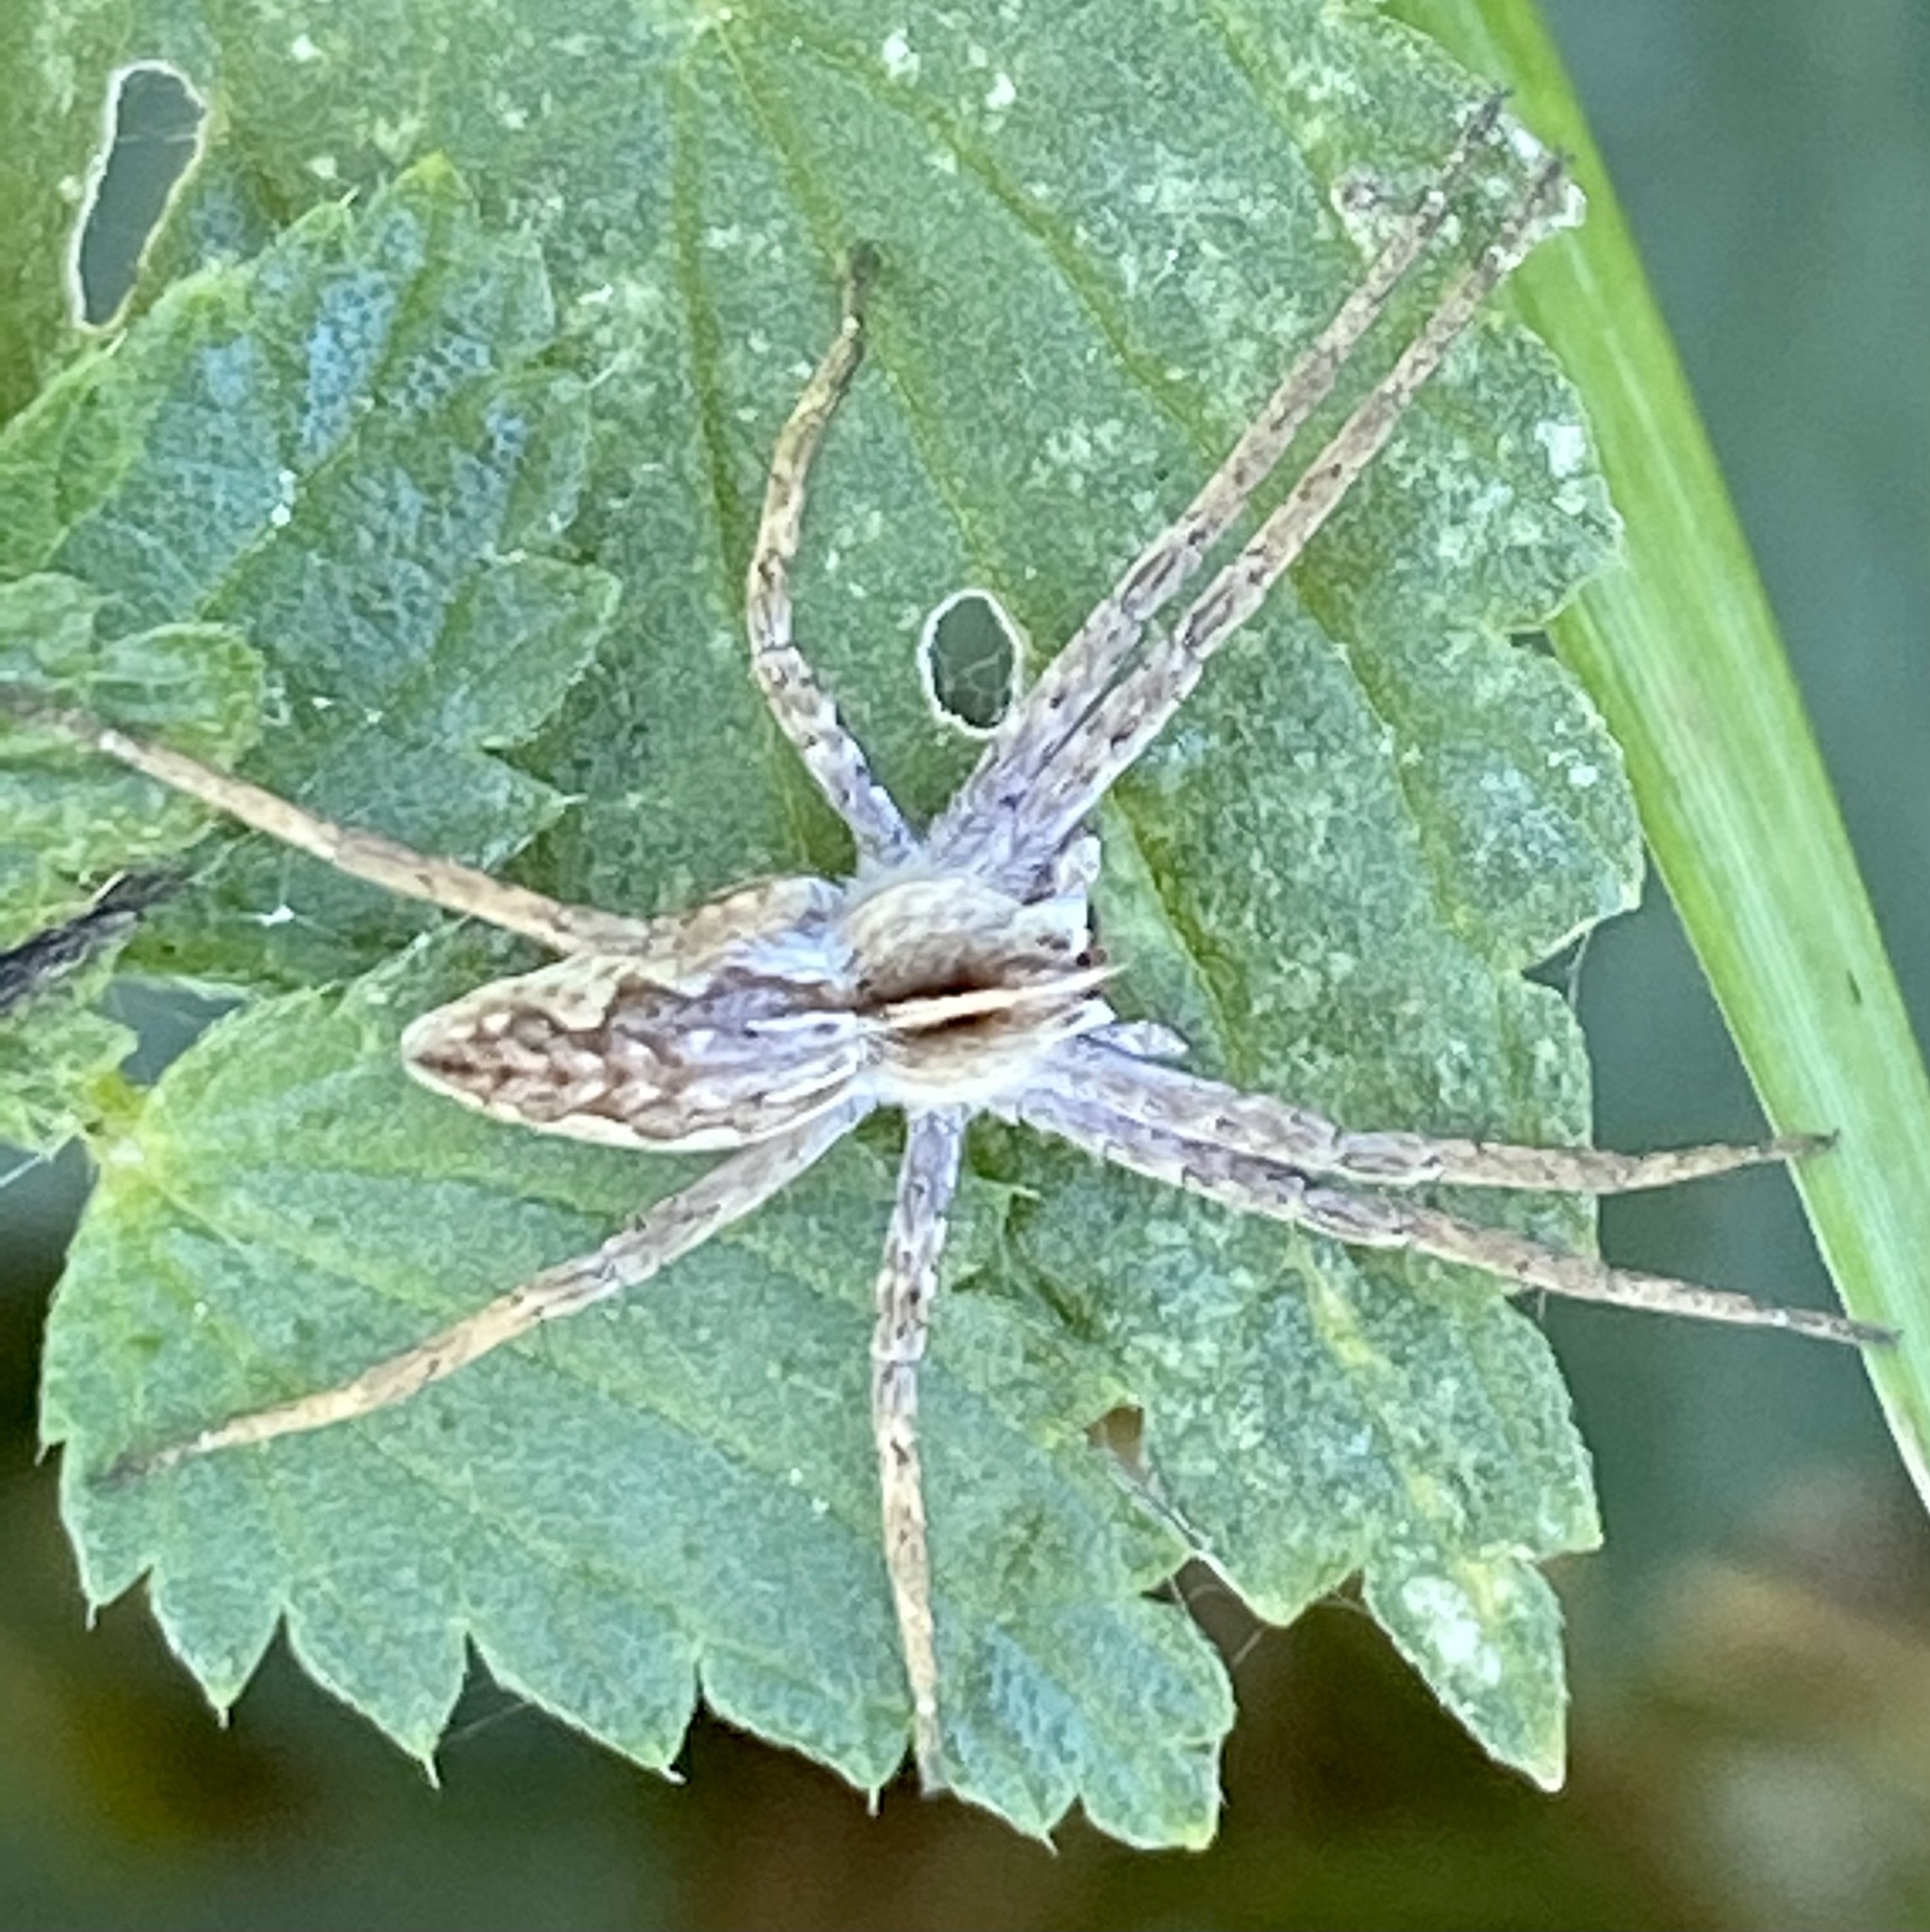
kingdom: Animalia
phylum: Arthropoda
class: Arachnida
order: Araneae
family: Pisauridae
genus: Pisaura
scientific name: Pisaura mirabilis
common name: Tent spider
